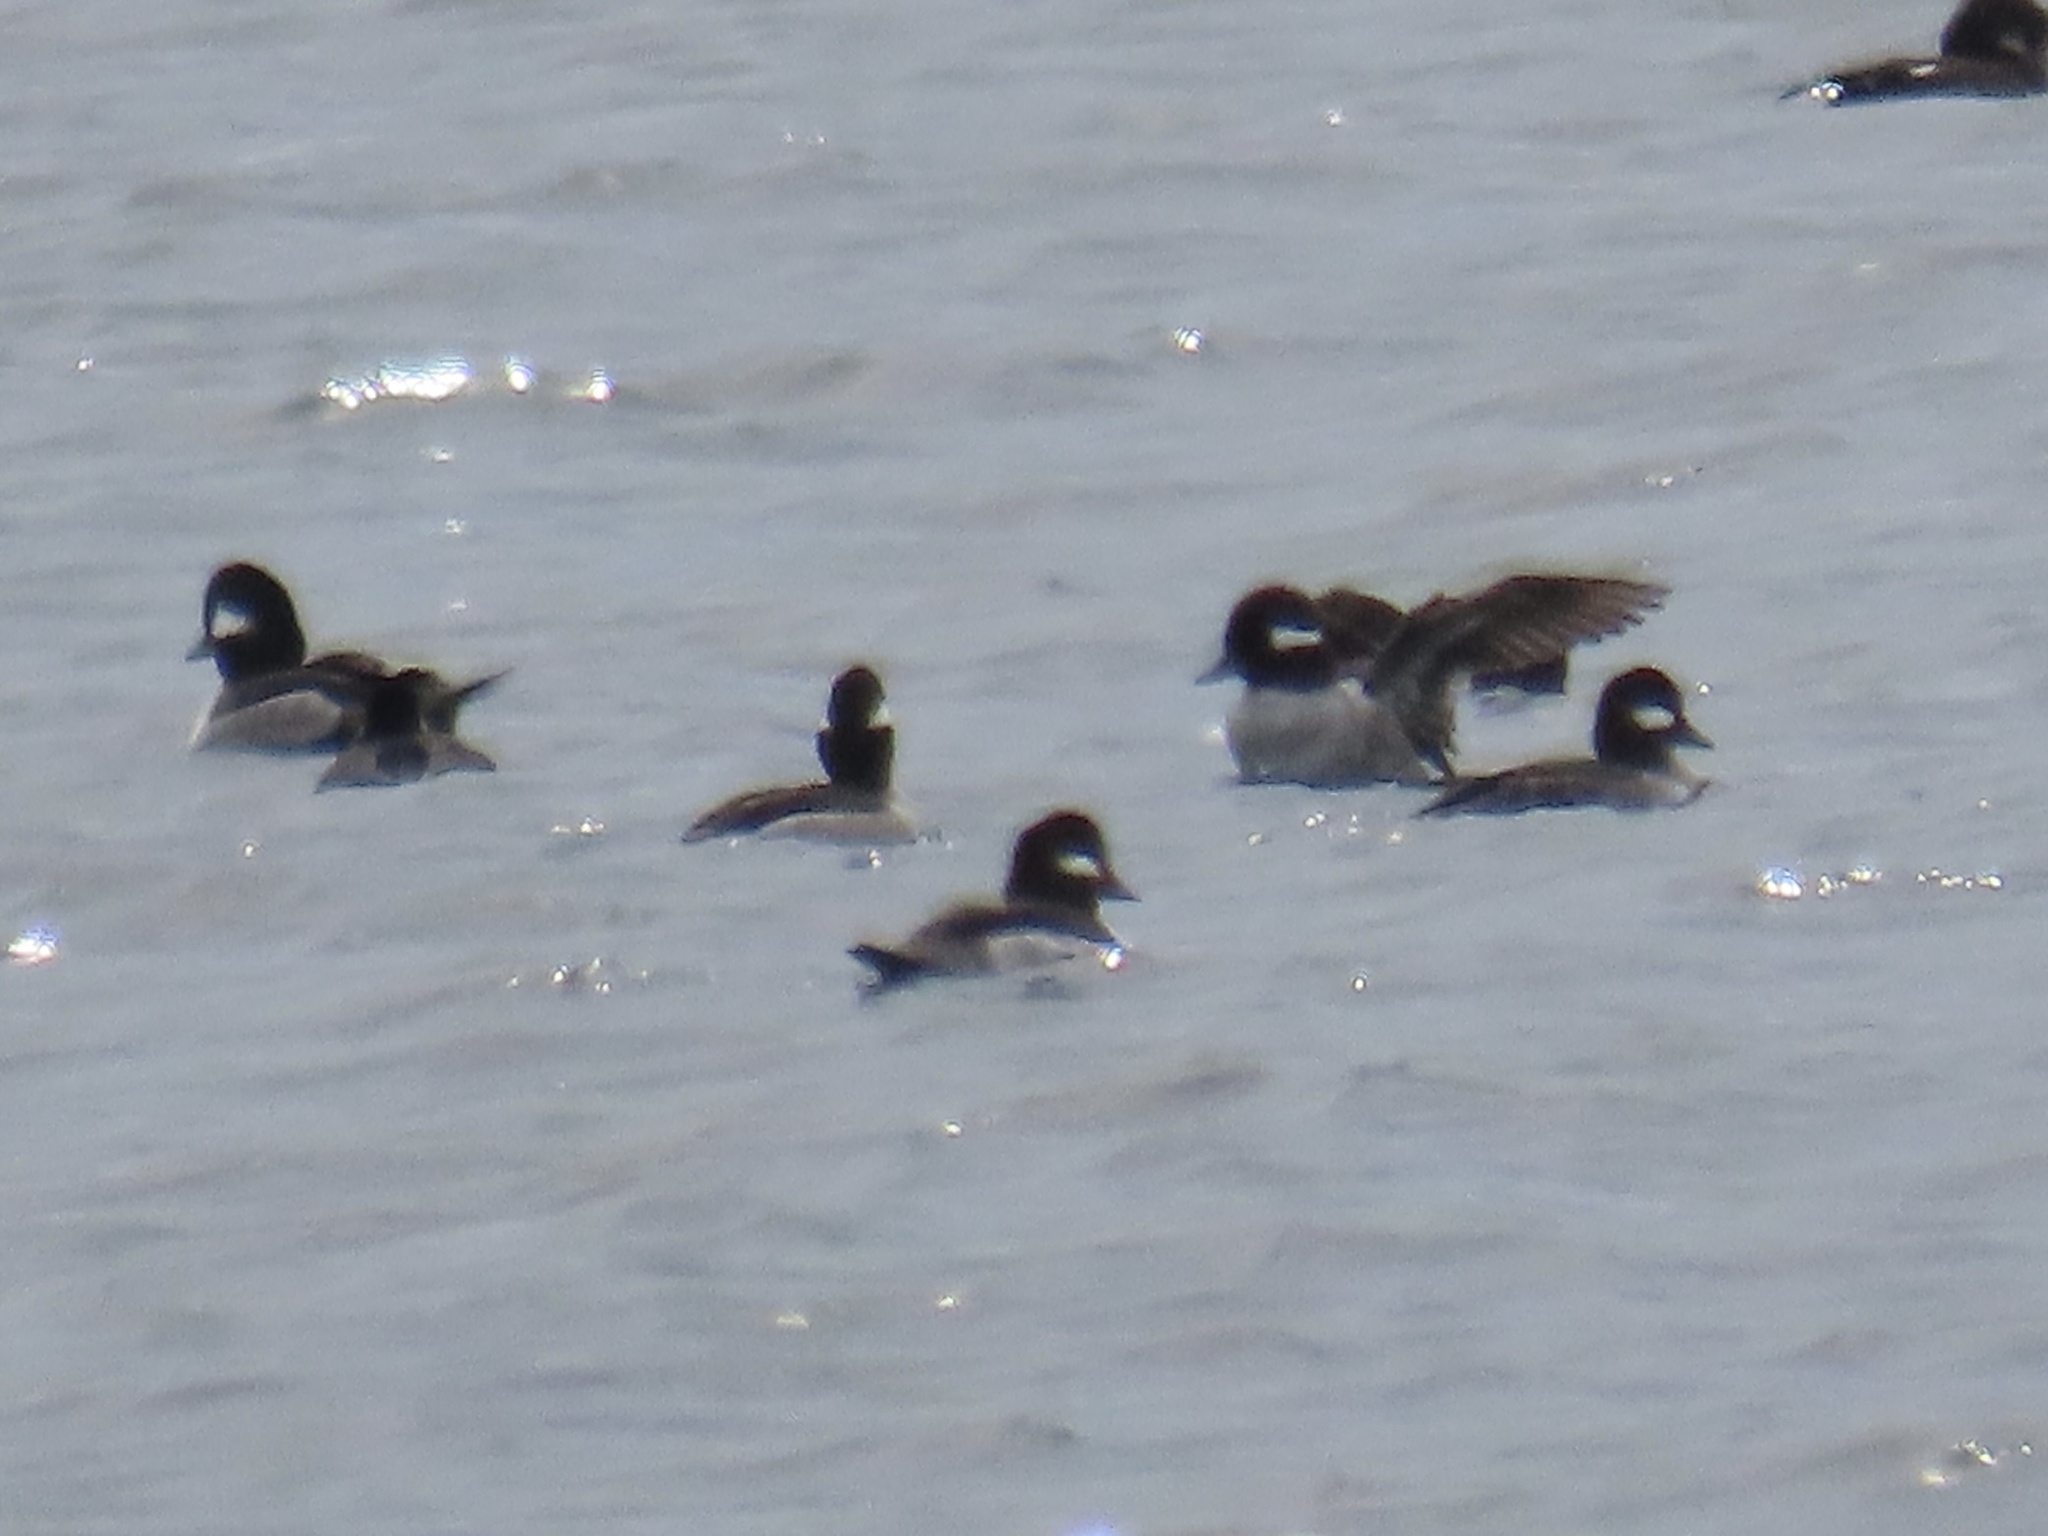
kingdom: Animalia
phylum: Chordata
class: Aves
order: Anseriformes
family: Anatidae
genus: Bucephala
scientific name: Bucephala albeola
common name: Bufflehead
